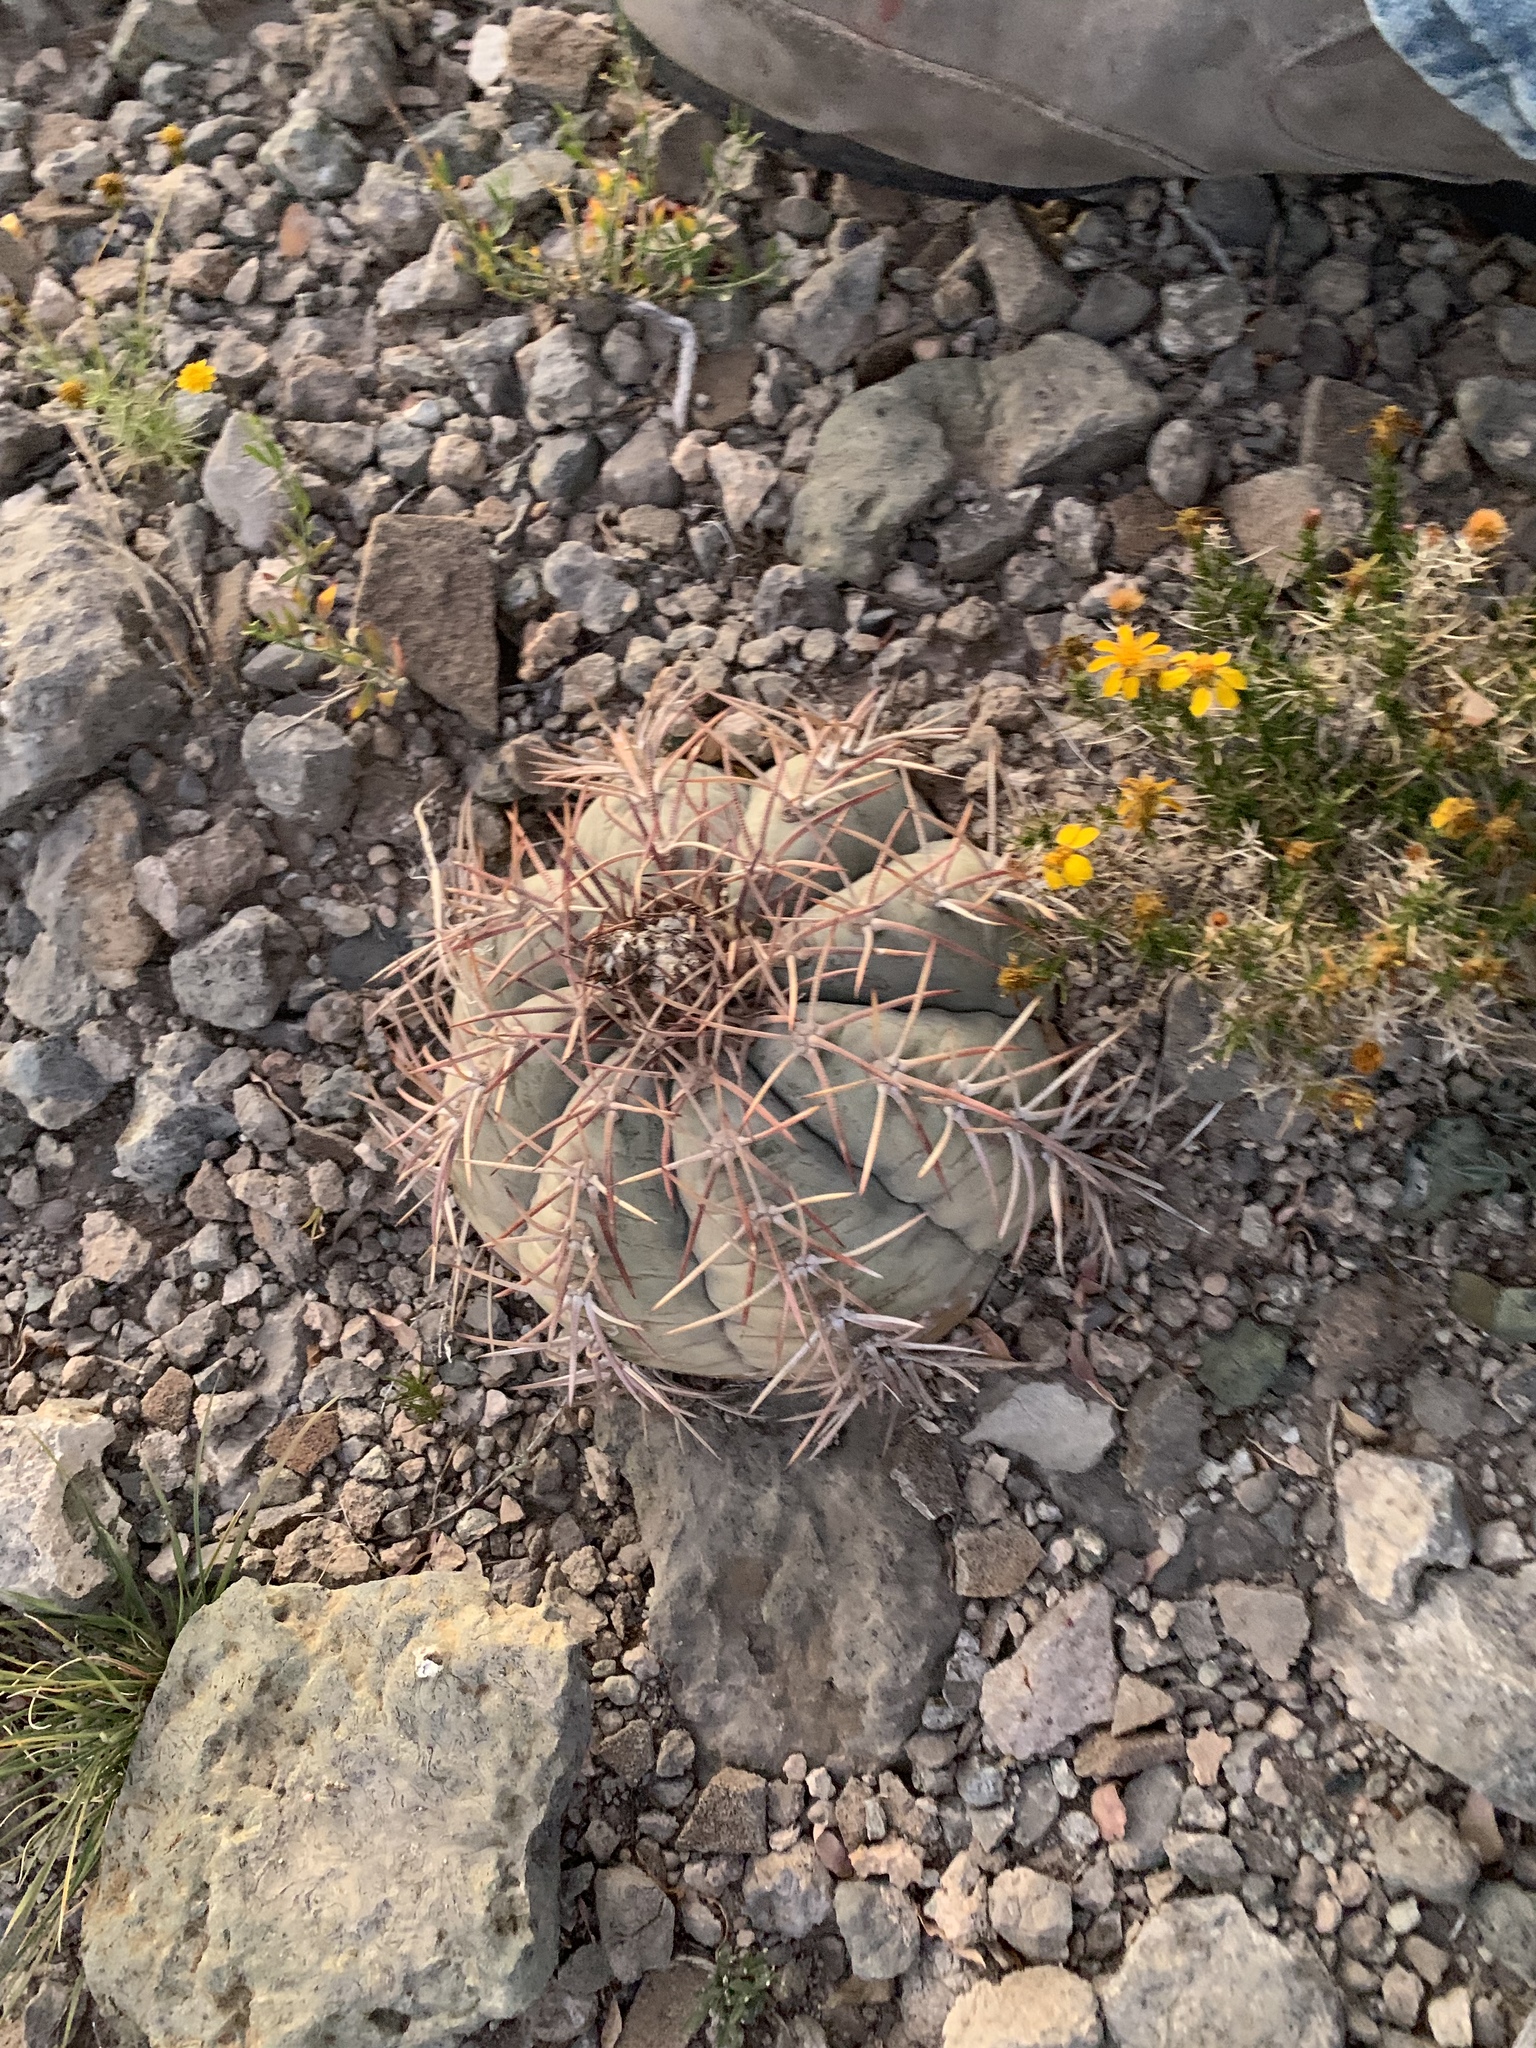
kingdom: Plantae
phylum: Tracheophyta
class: Magnoliopsida
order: Caryophyllales
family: Cactaceae
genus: Echinocactus
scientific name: Echinocactus horizonthalonius
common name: Devilshead
